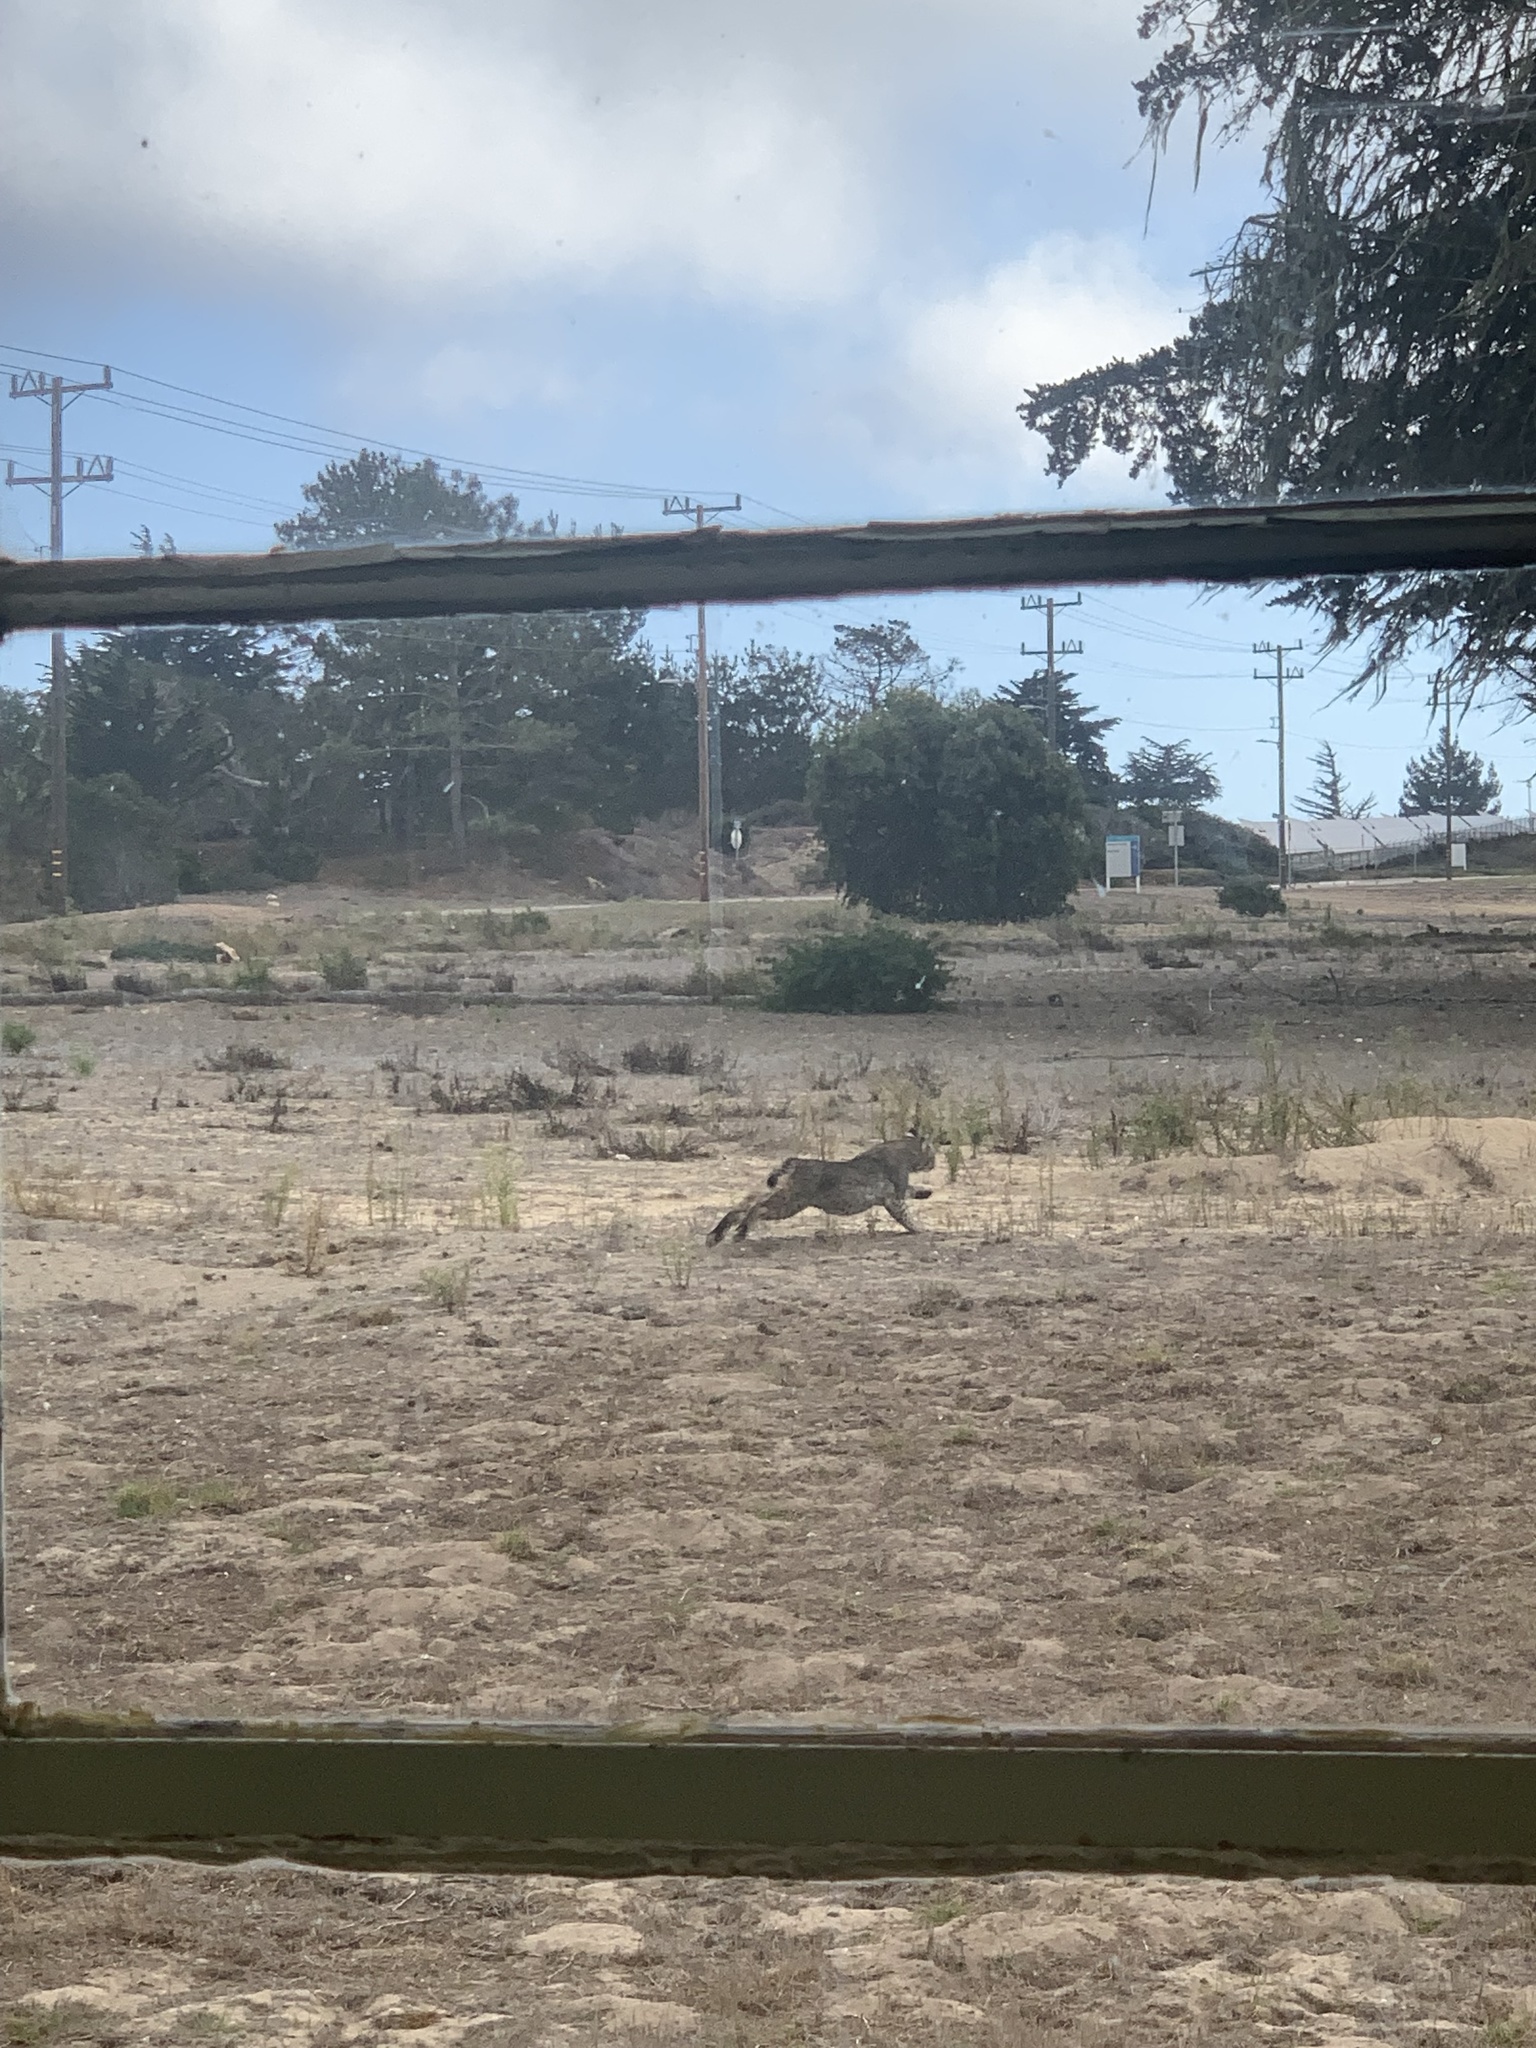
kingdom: Animalia
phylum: Chordata
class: Mammalia
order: Carnivora
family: Felidae
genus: Lynx
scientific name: Lynx rufus
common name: Bobcat
